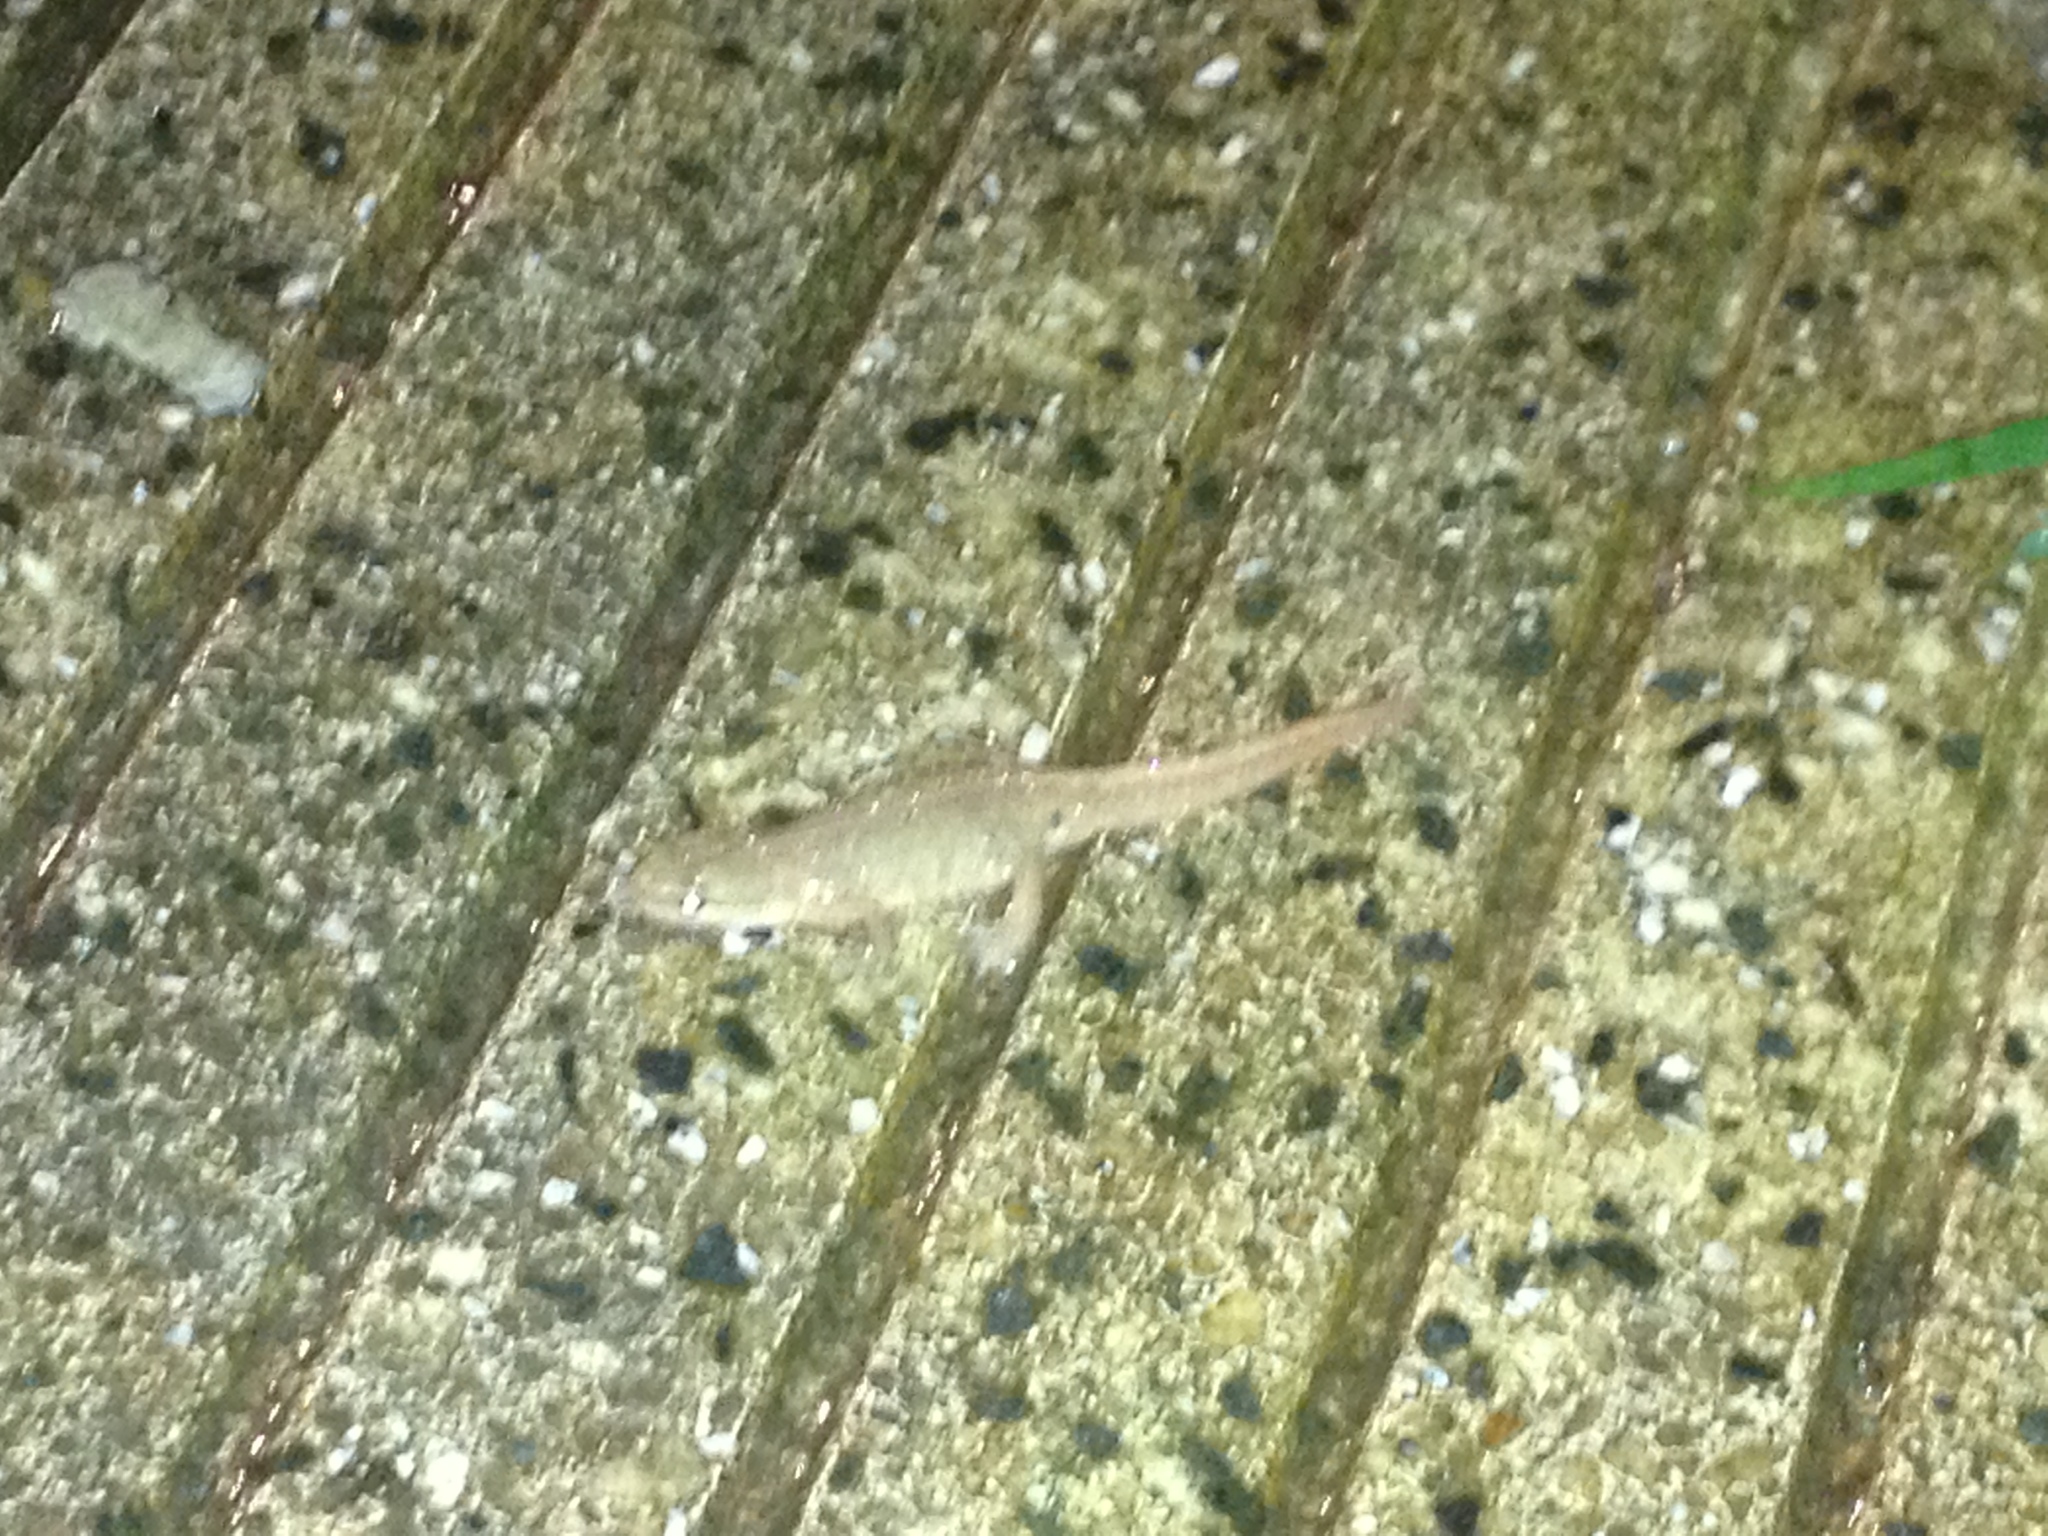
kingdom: Animalia
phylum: Chordata
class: Amphibia
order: Caudata
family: Salamandridae
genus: Lissotriton
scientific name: Lissotriton helveticus
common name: Palmate newt
